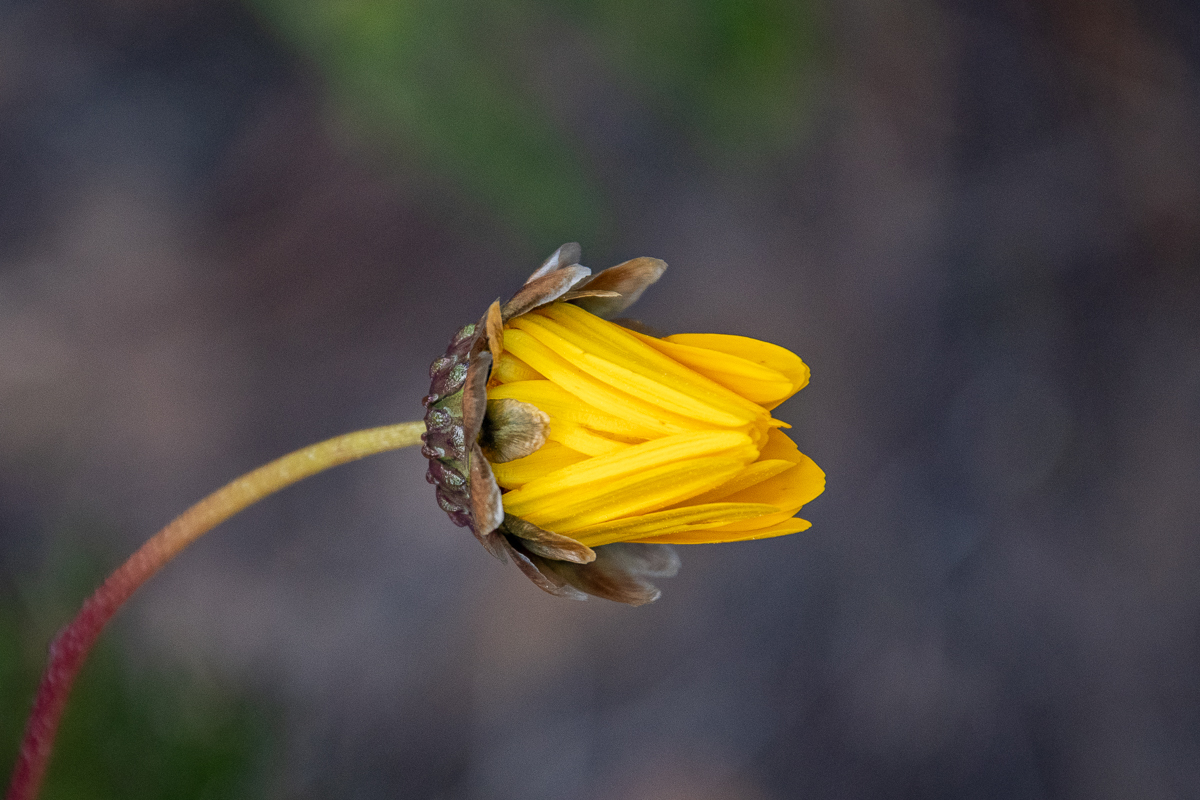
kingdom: Plantae
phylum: Tracheophyta
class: Magnoliopsida
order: Asterales
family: Asteraceae
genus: Ursinia
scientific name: Ursinia paleacea
